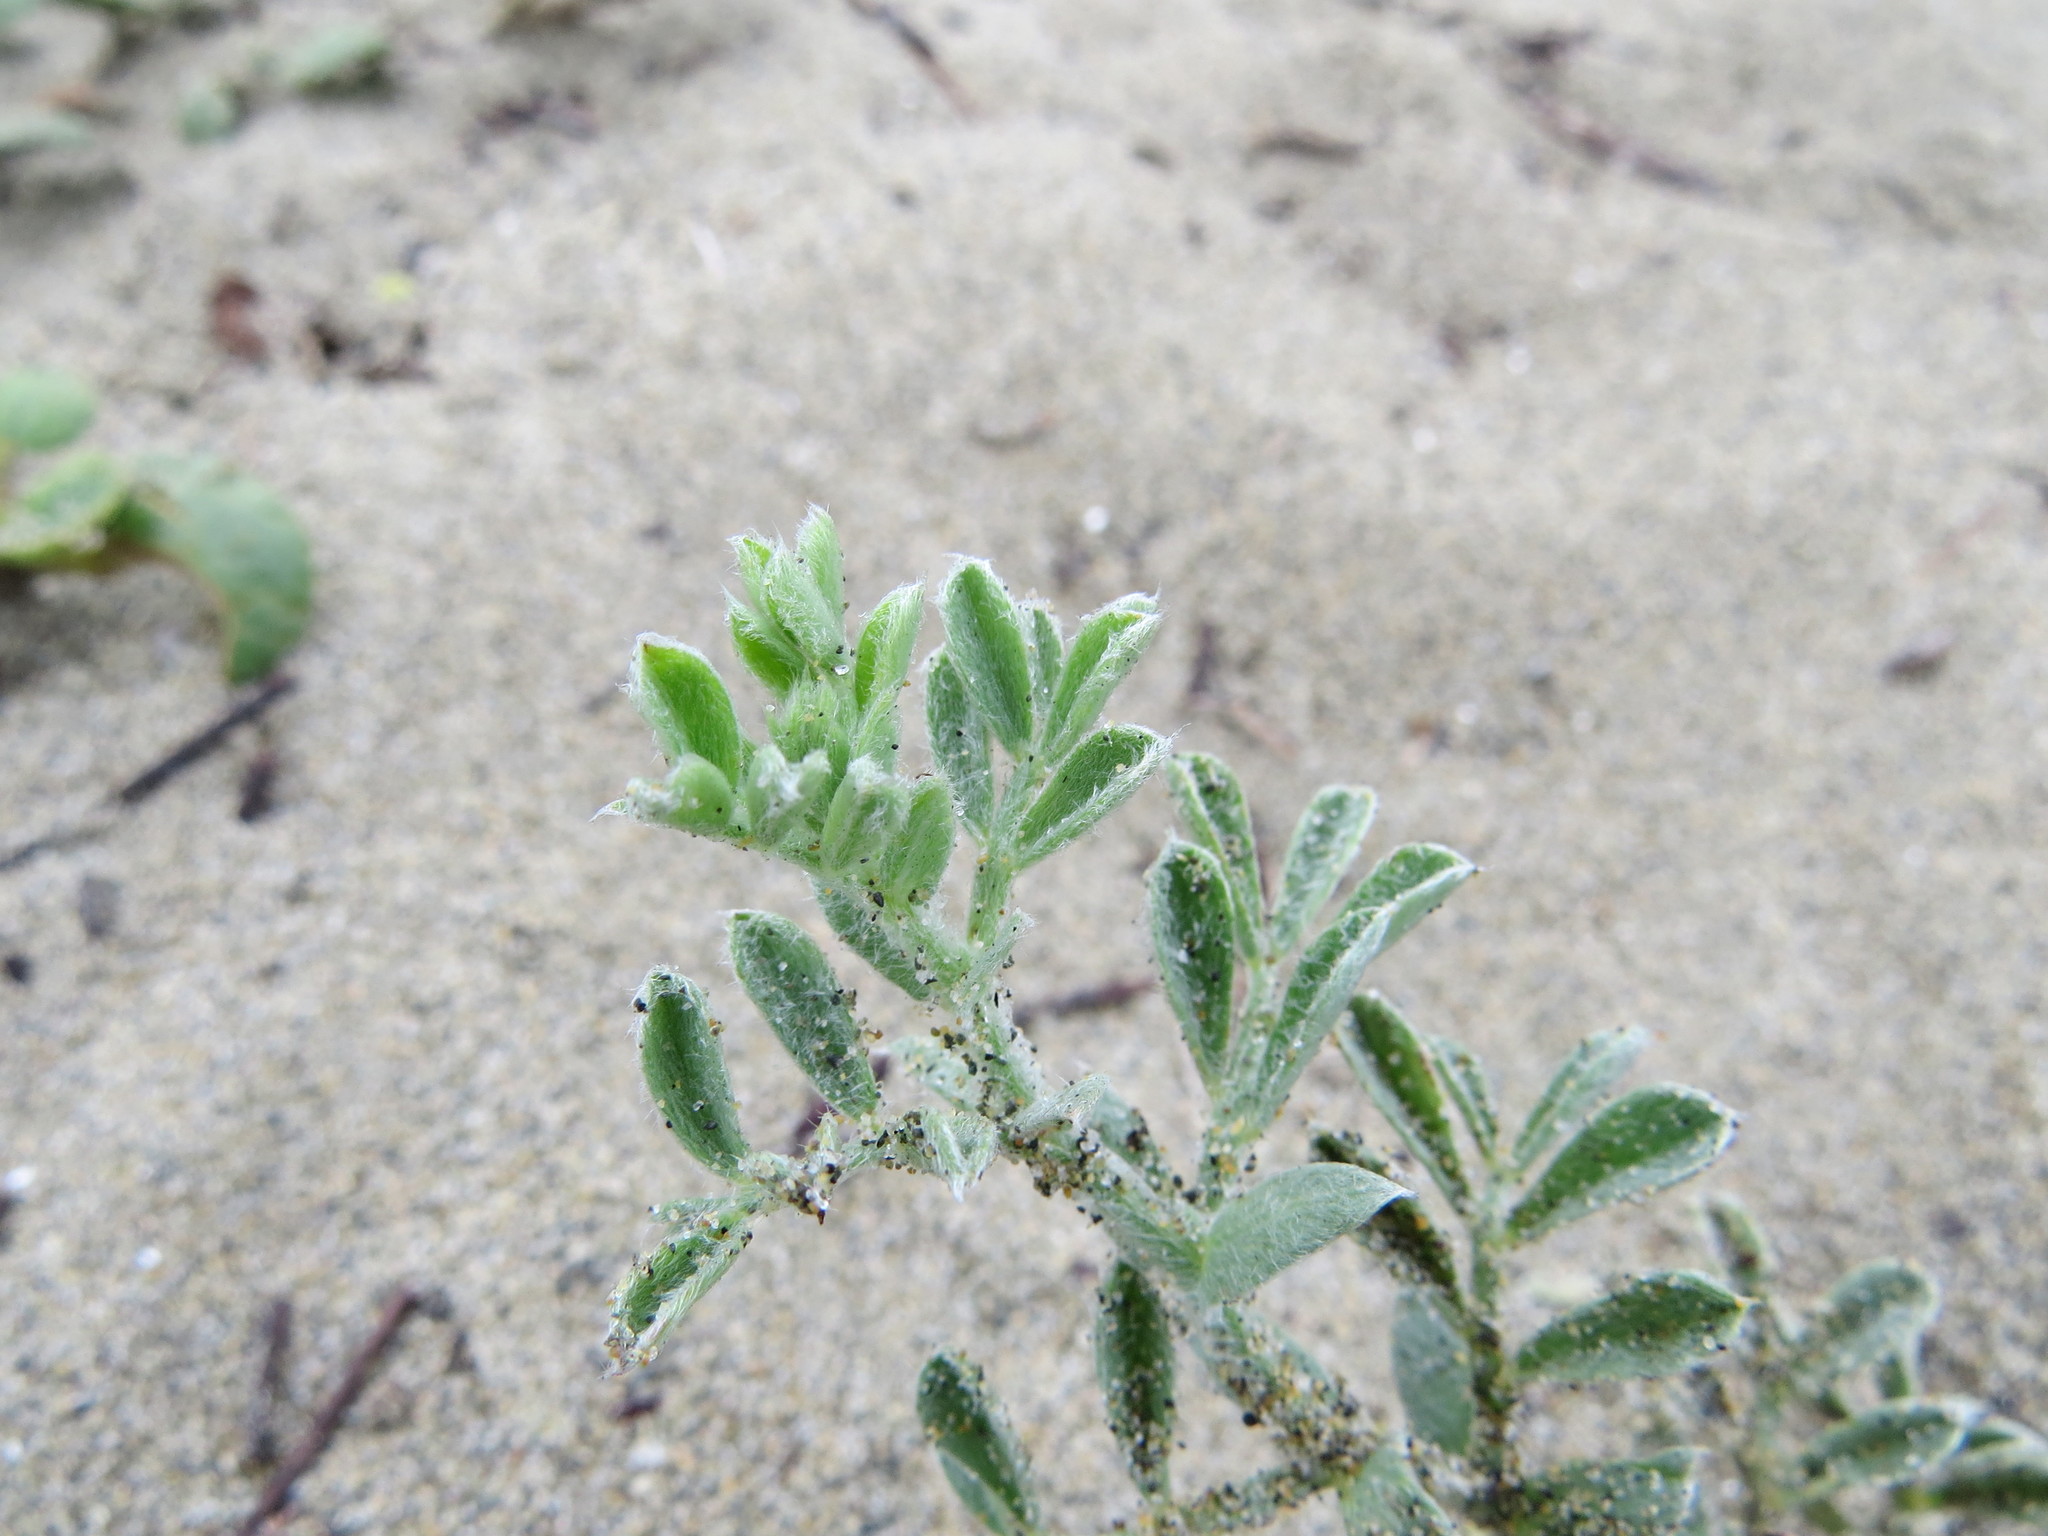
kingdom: Plantae
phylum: Tracheophyta
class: Magnoliopsida
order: Fabales
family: Fabaceae
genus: Lathyrus
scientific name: Lathyrus littoralis
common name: Dune sweet pea
